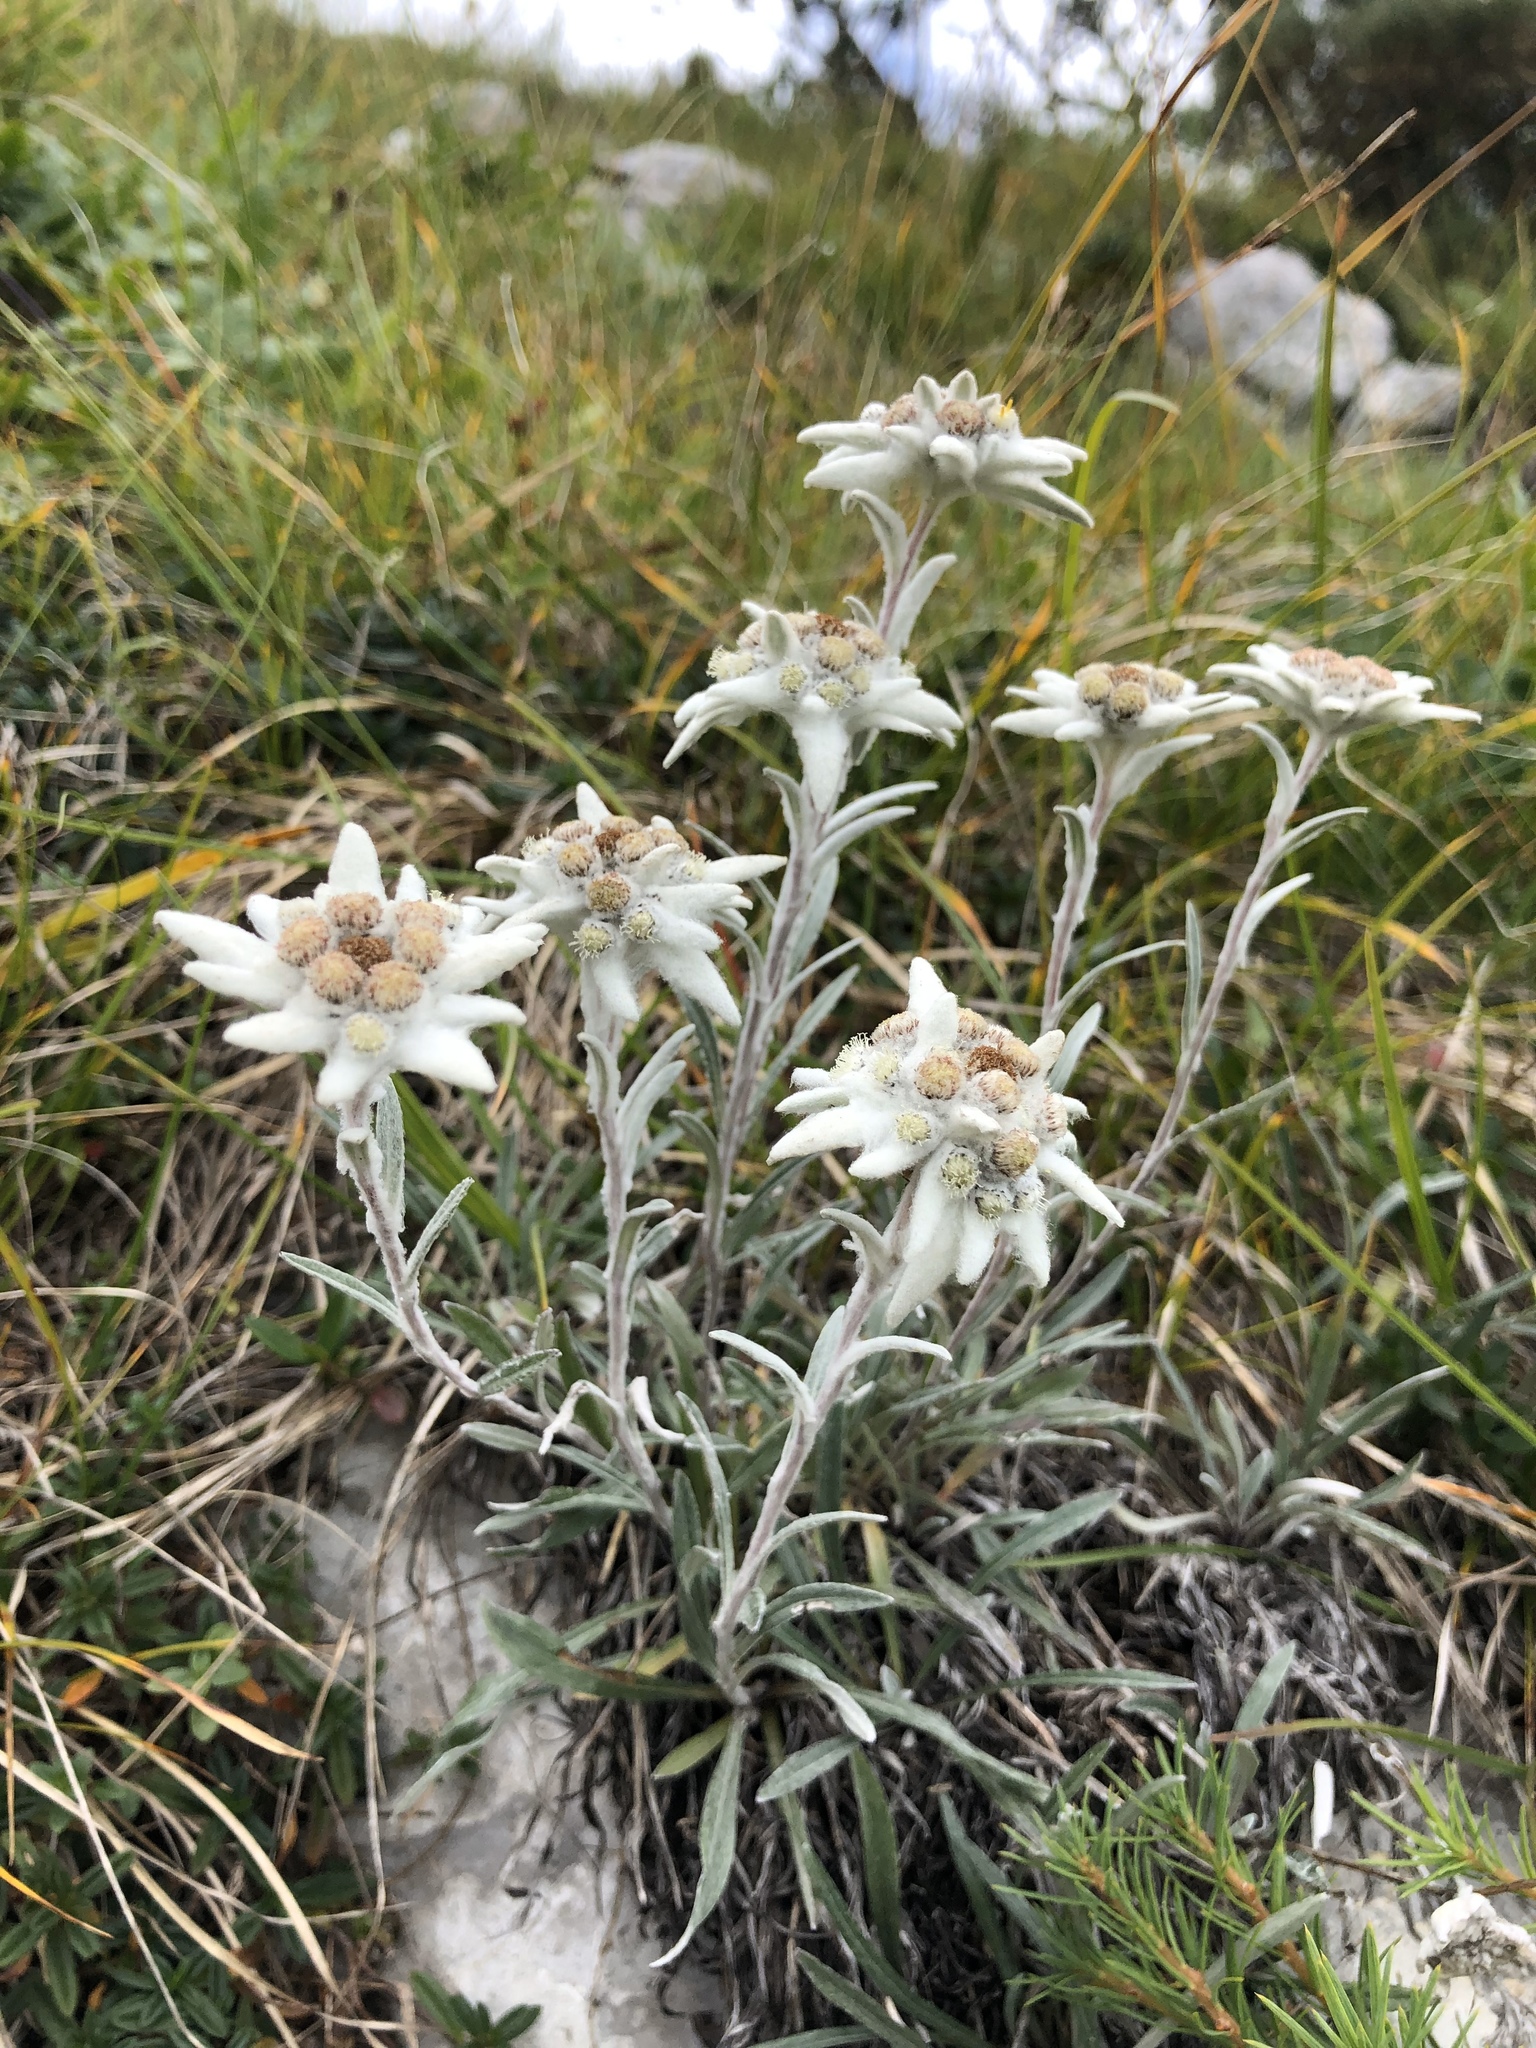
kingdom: Plantae
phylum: Tracheophyta
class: Magnoliopsida
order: Asterales
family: Asteraceae
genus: Leontopodium
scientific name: Leontopodium nivale
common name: Edelweiss
